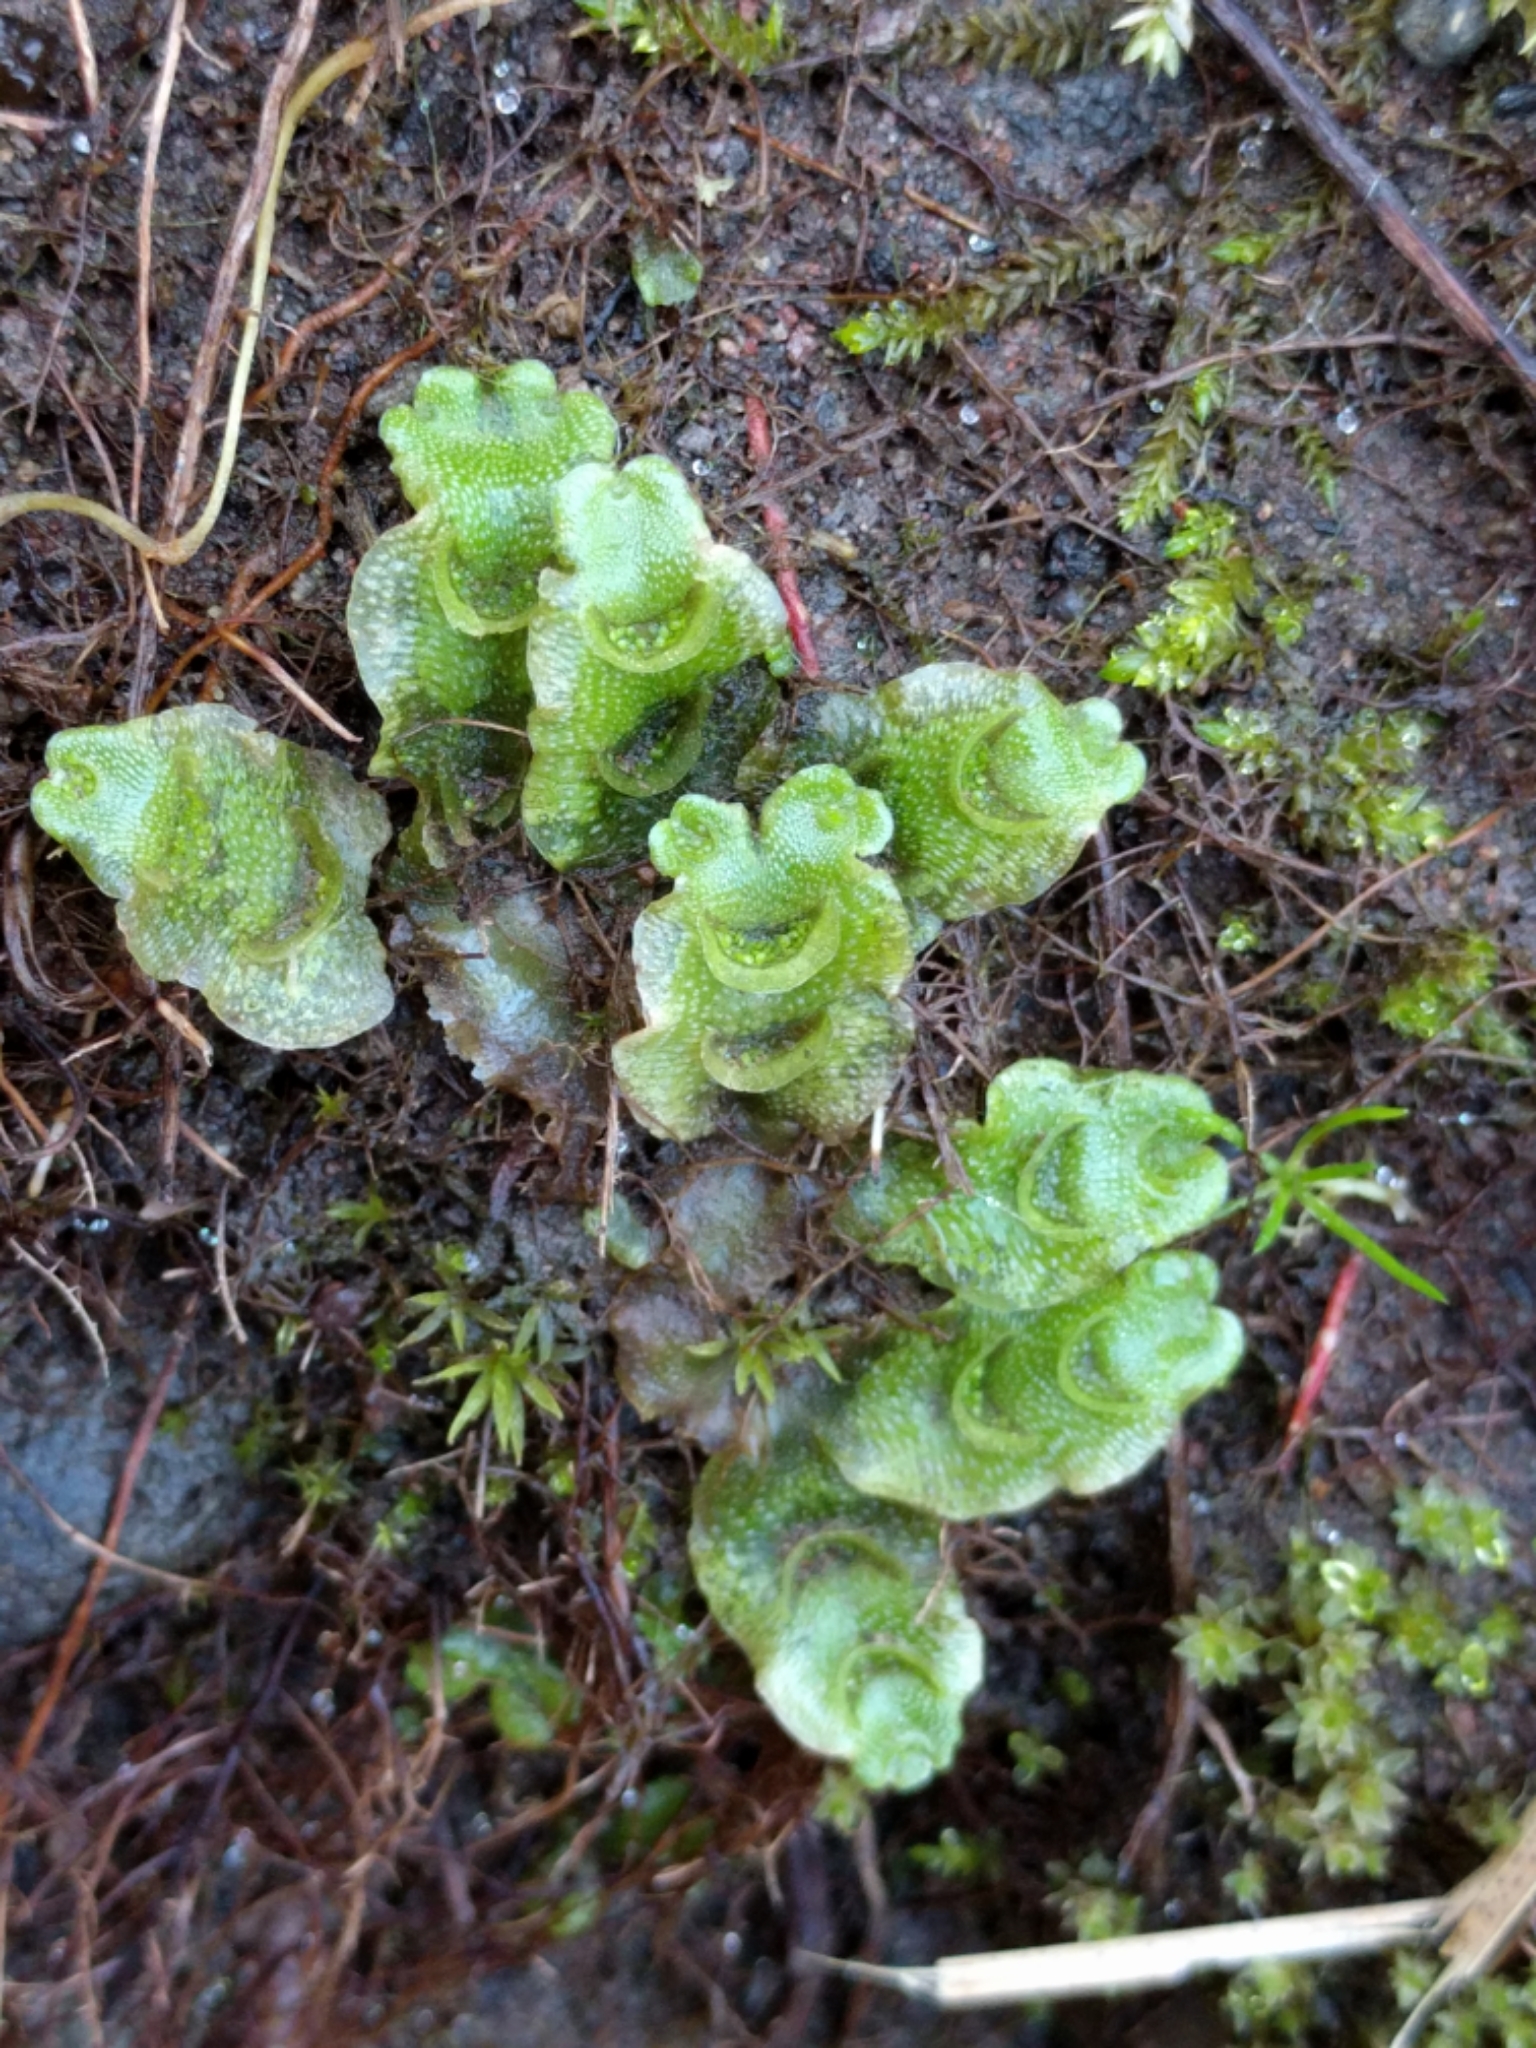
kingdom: Plantae
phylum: Marchantiophyta
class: Marchantiopsida
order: Lunulariales
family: Lunulariaceae
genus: Lunularia
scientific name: Lunularia cruciata
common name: Crescent-cup liverwort
